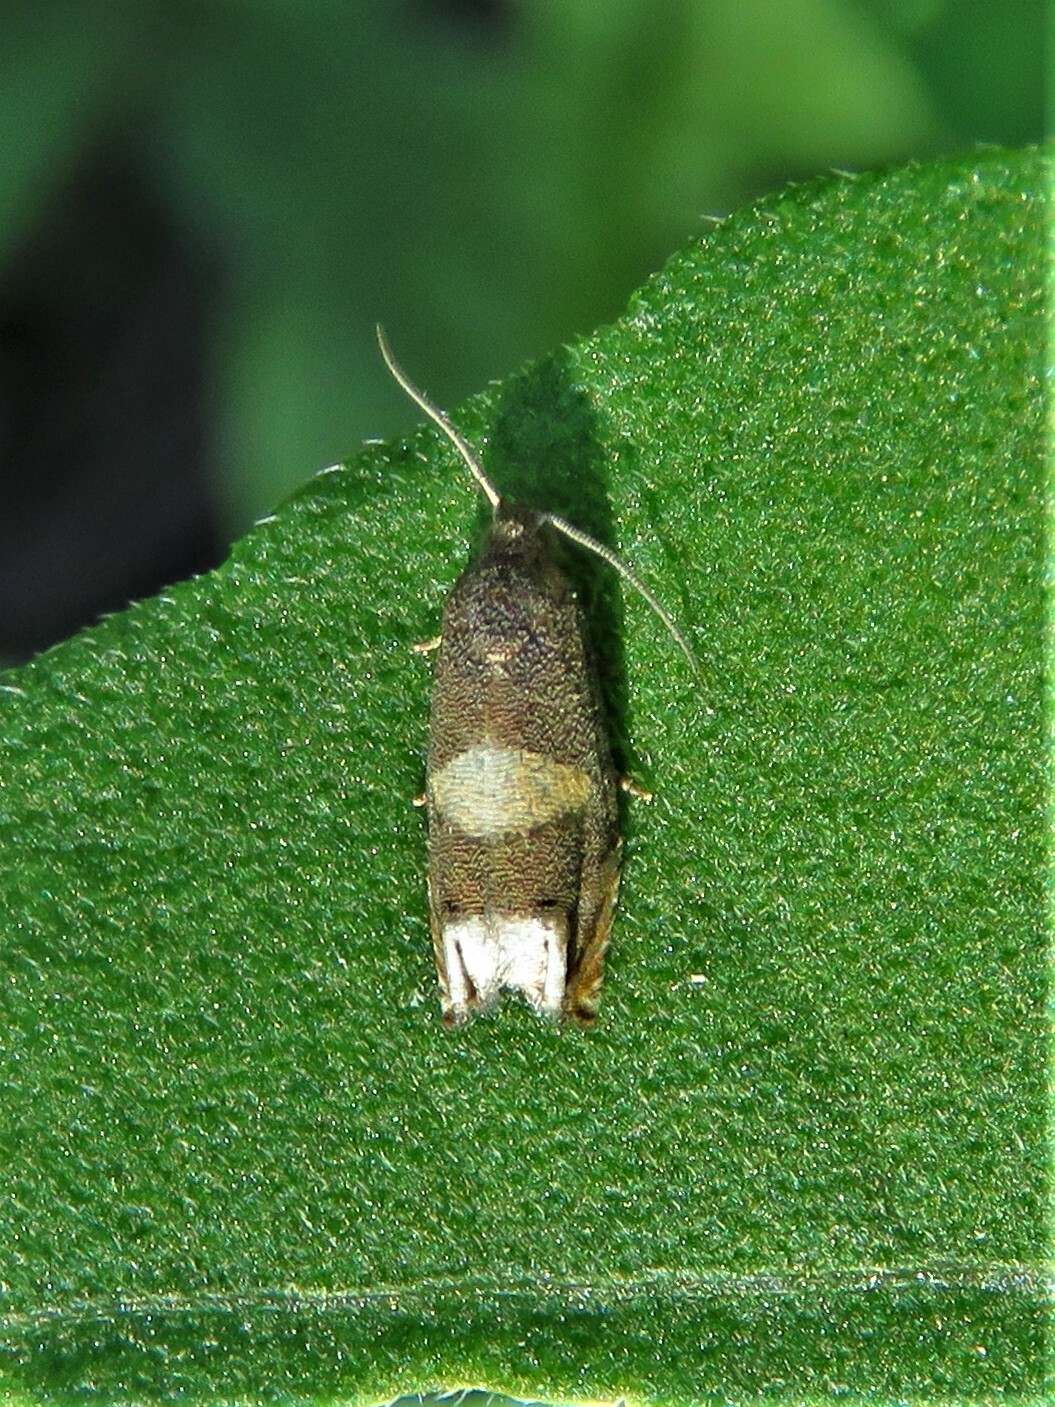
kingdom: Animalia
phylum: Arthropoda
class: Insecta
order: Lepidoptera
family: Tortricidae
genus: Epiblema
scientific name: Epiblema
